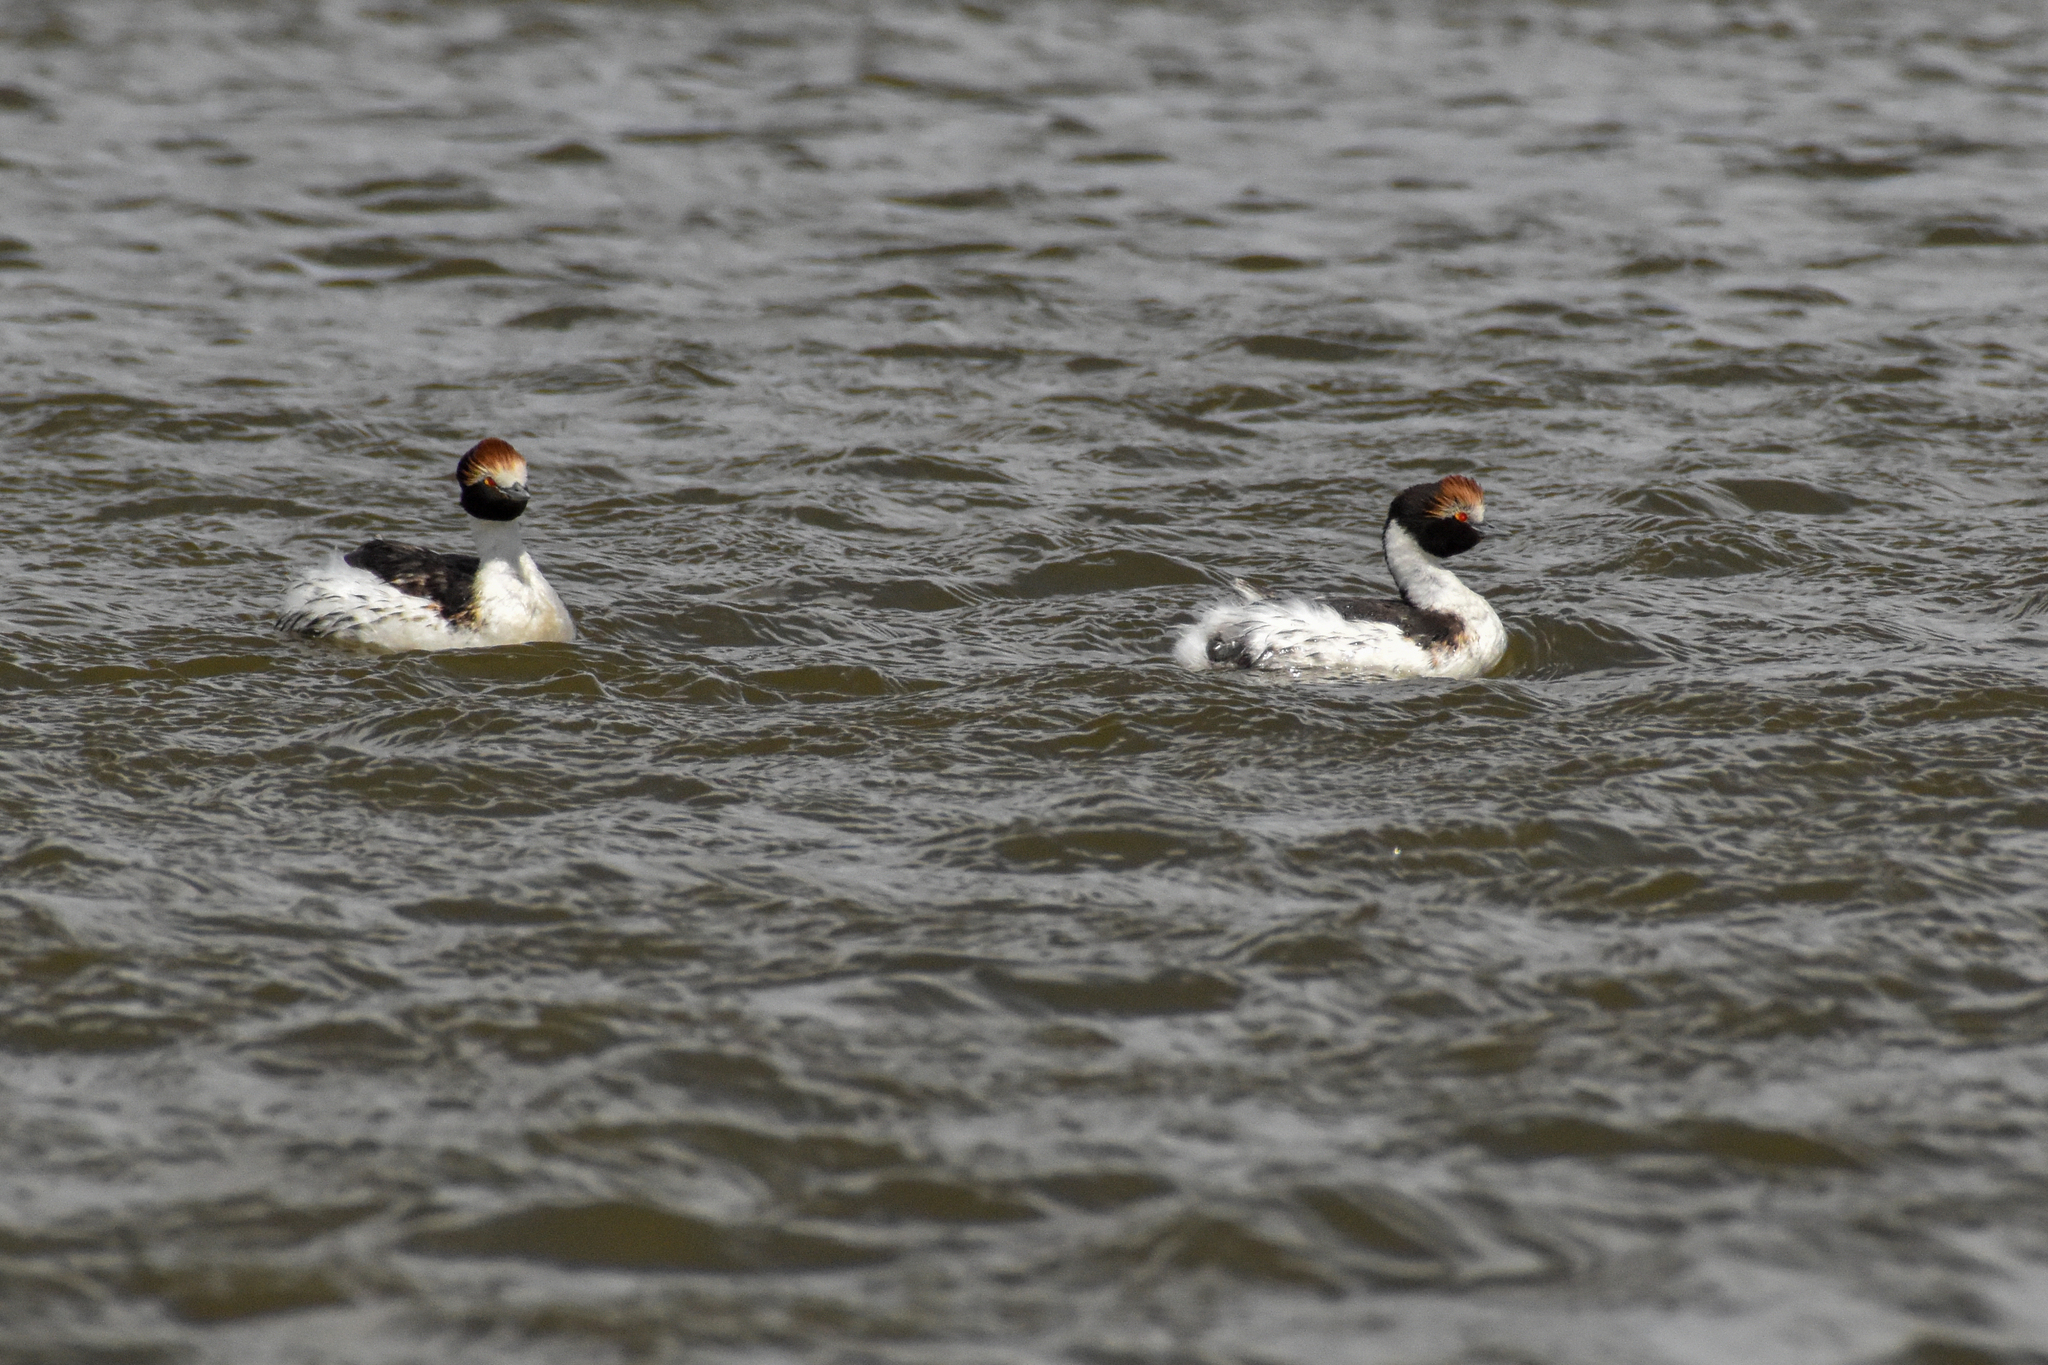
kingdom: Animalia
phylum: Chordata
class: Aves
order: Podicipediformes
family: Podicipedidae
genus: Podiceps
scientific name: Podiceps gallardoi
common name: Hooded grebe
